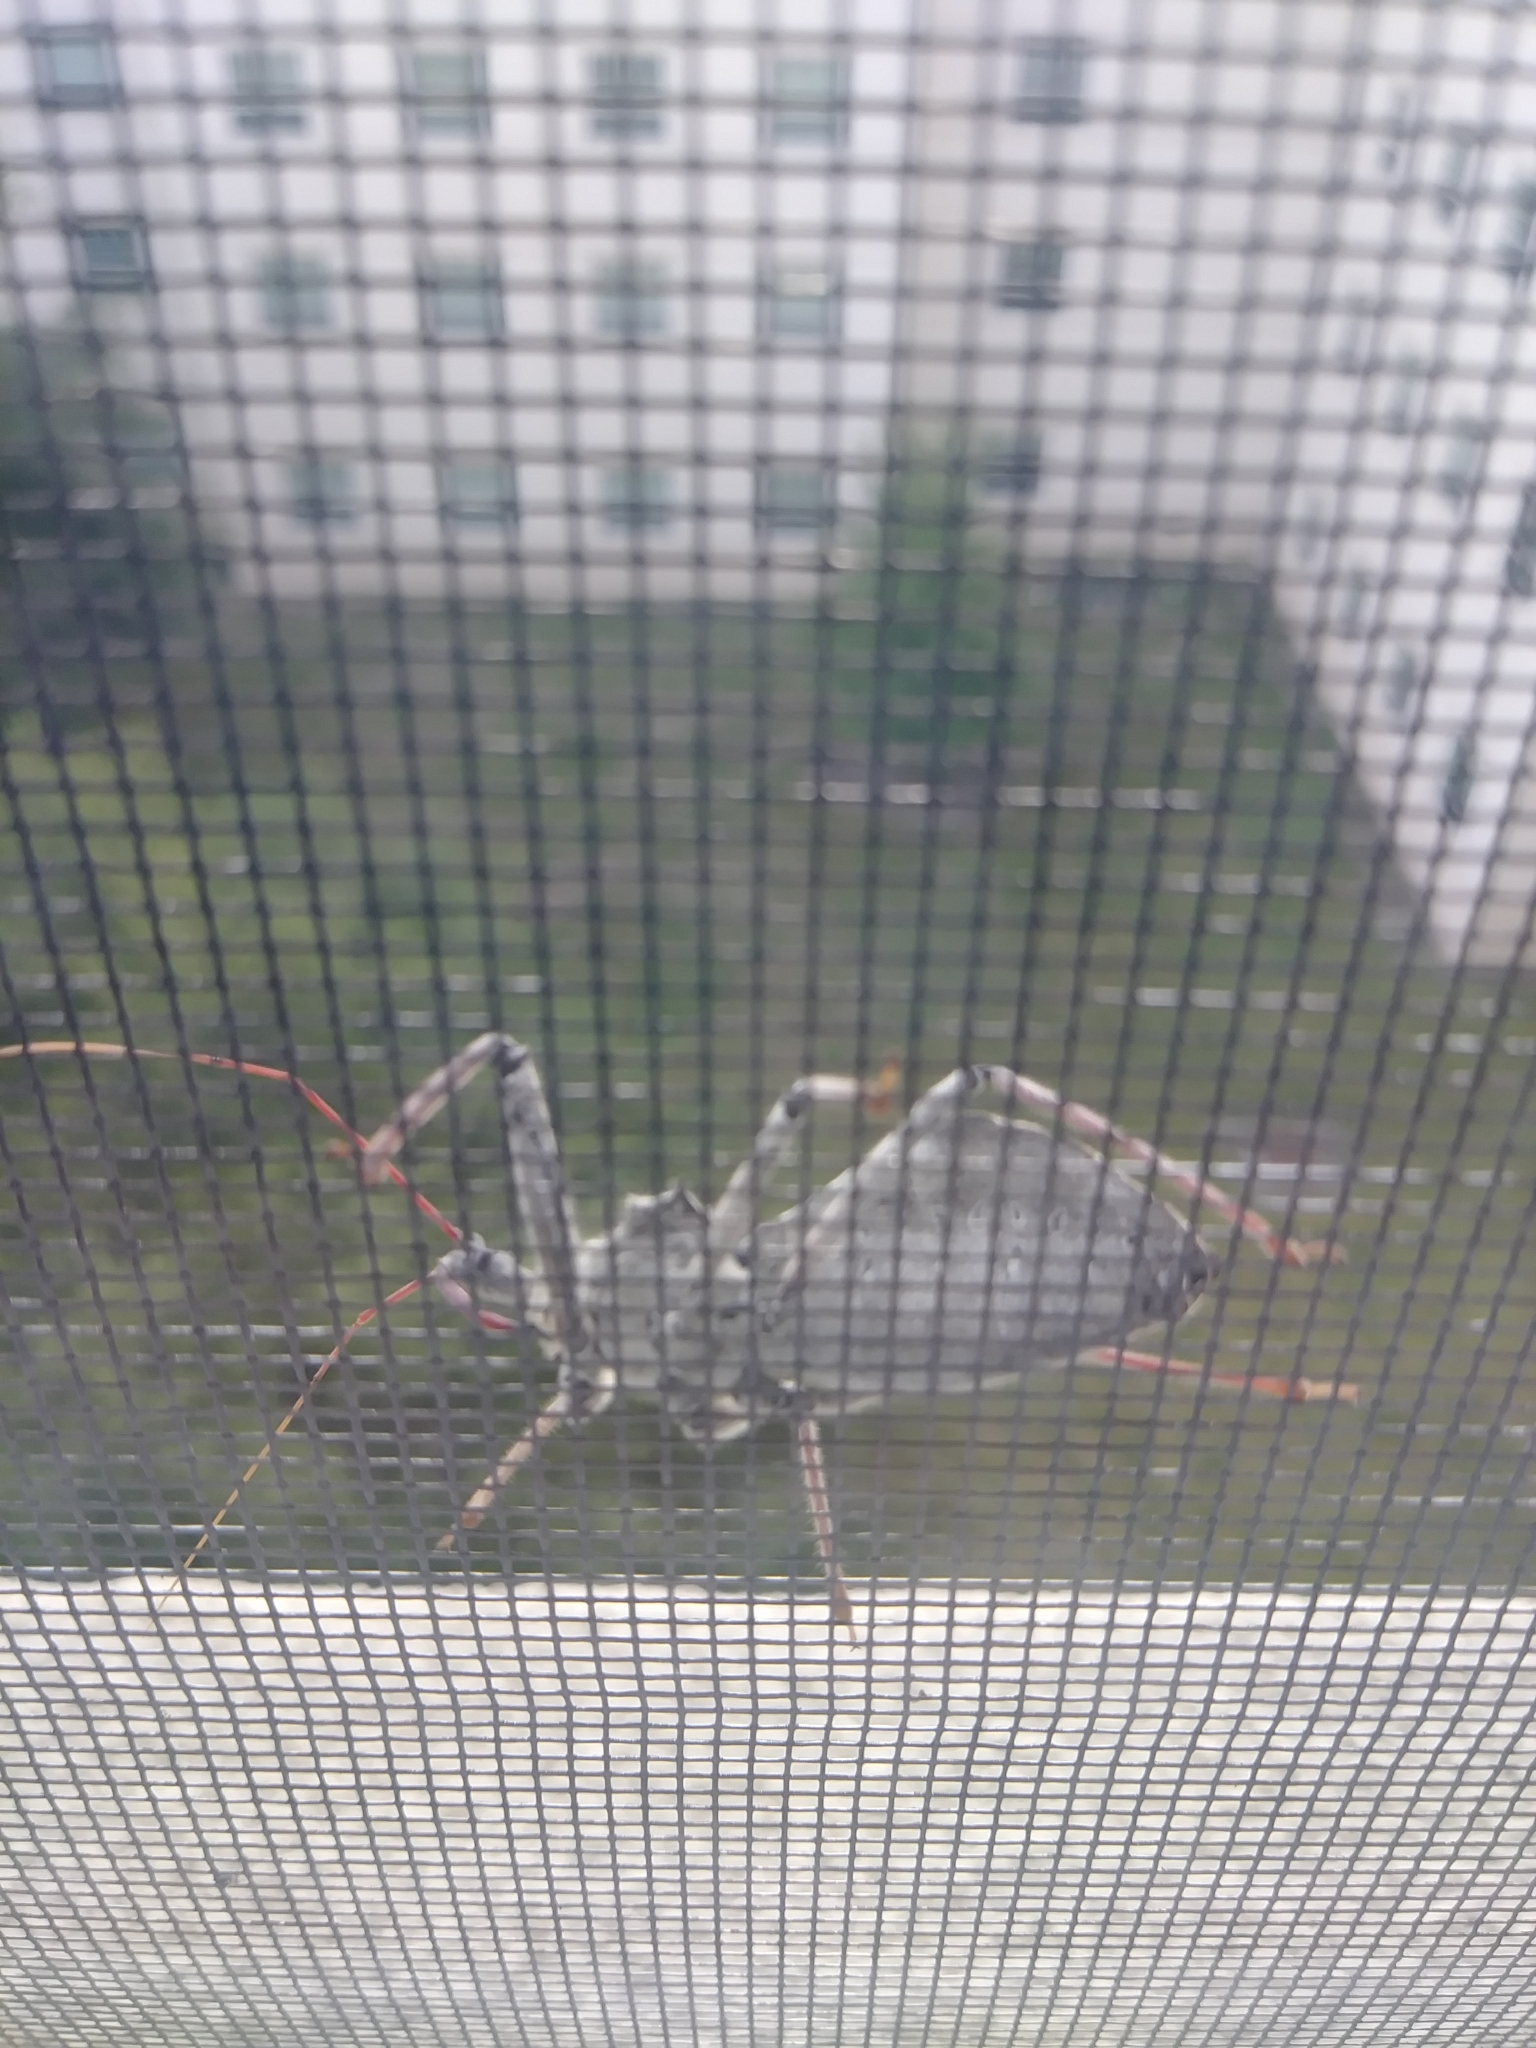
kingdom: Animalia
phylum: Arthropoda
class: Insecta
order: Hemiptera
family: Reduviidae
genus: Arilus
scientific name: Arilus cristatus
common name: North american wheel bug
